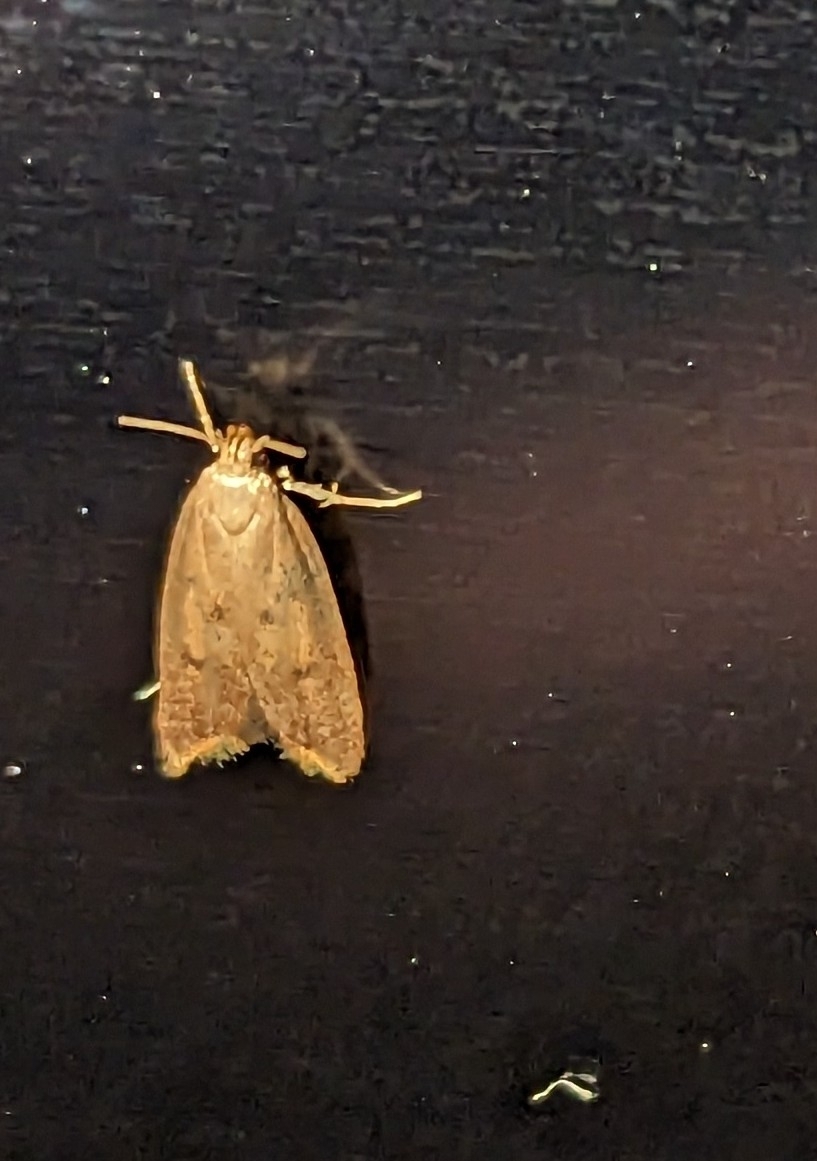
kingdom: Animalia
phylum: Arthropoda
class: Insecta
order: Lepidoptera
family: Oecophoridae
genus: Tachystola
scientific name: Tachystola acroxantha
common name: Ruddy streak
